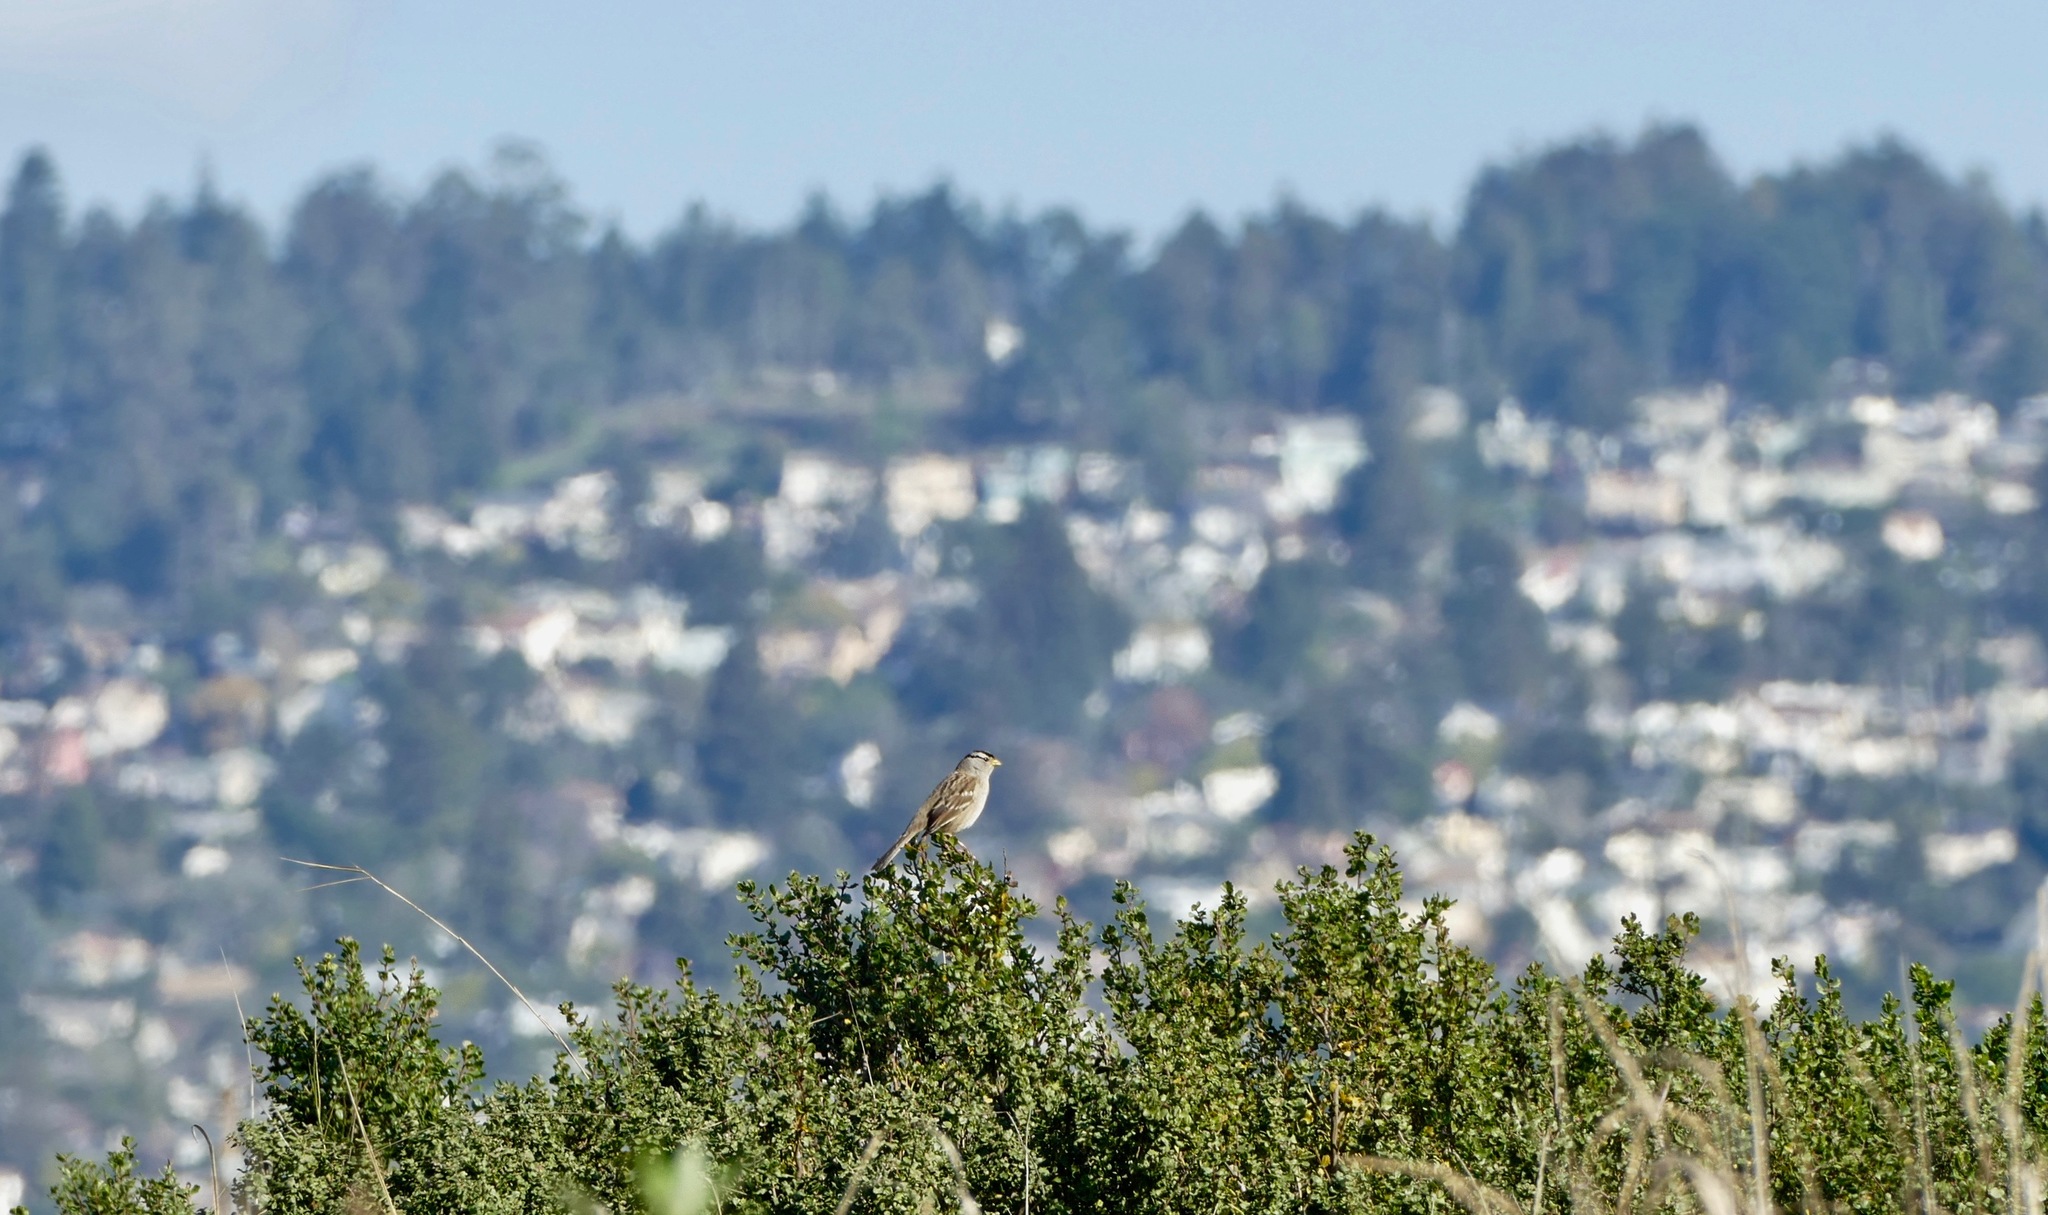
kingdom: Animalia
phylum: Chordata
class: Aves
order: Passeriformes
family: Passerellidae
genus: Zonotrichia
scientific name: Zonotrichia leucophrys
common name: White-crowned sparrow
